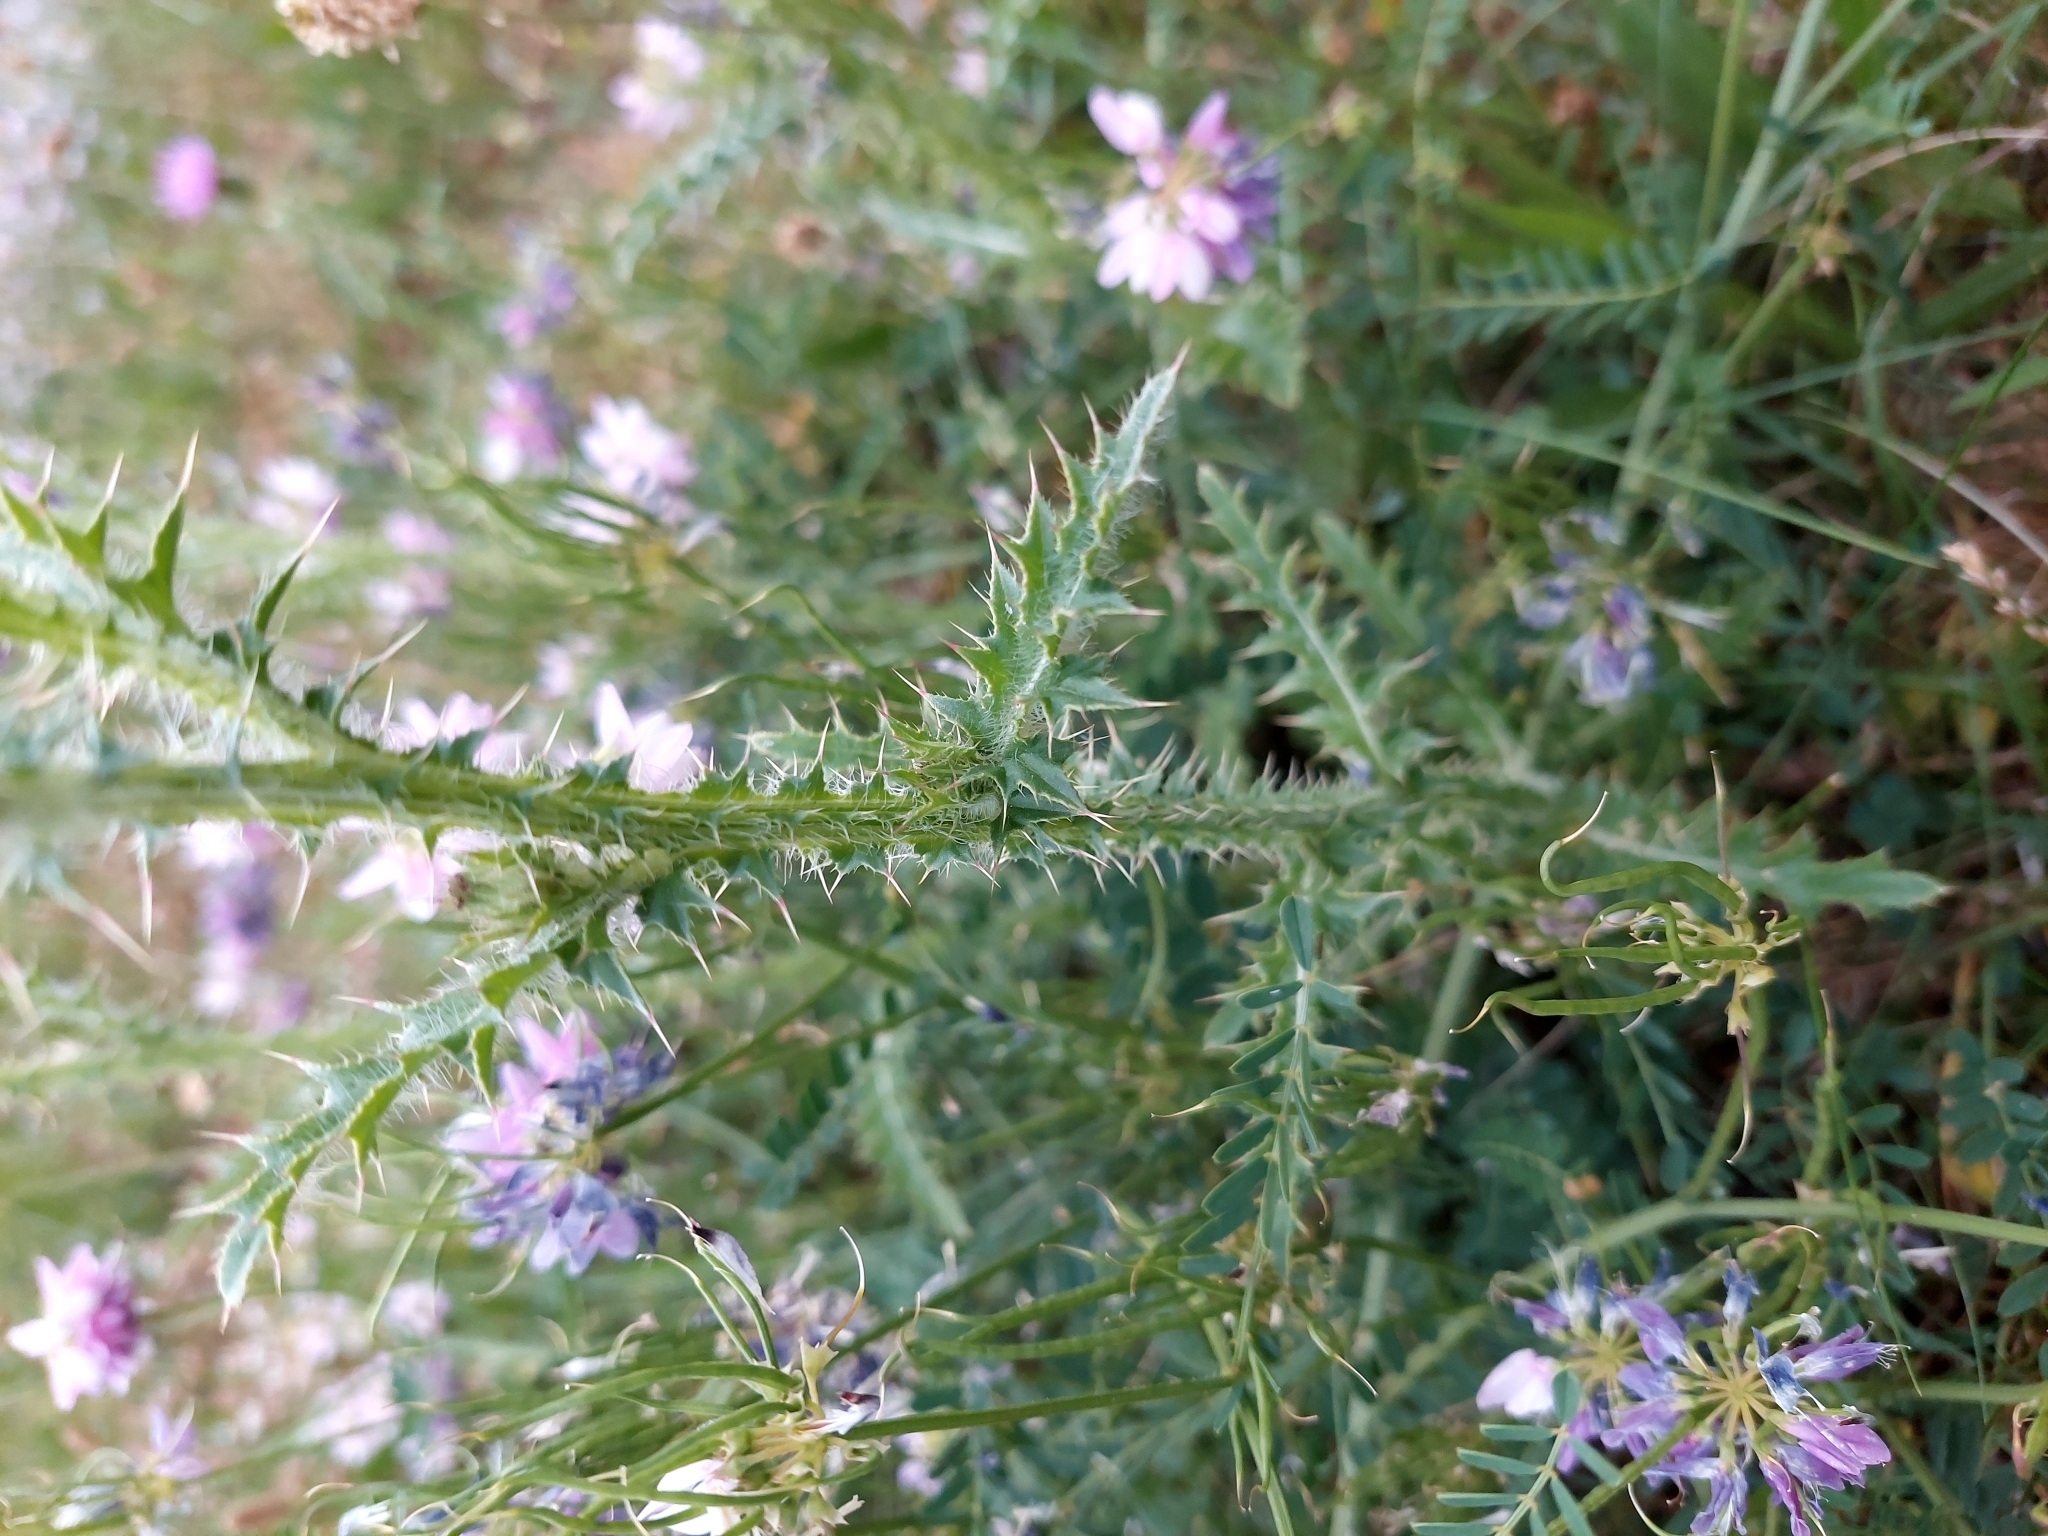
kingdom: Plantae
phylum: Tracheophyta
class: Magnoliopsida
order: Asterales
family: Asteraceae
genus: Carduus
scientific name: Carduus acanthoides
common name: Plumeless thistle
